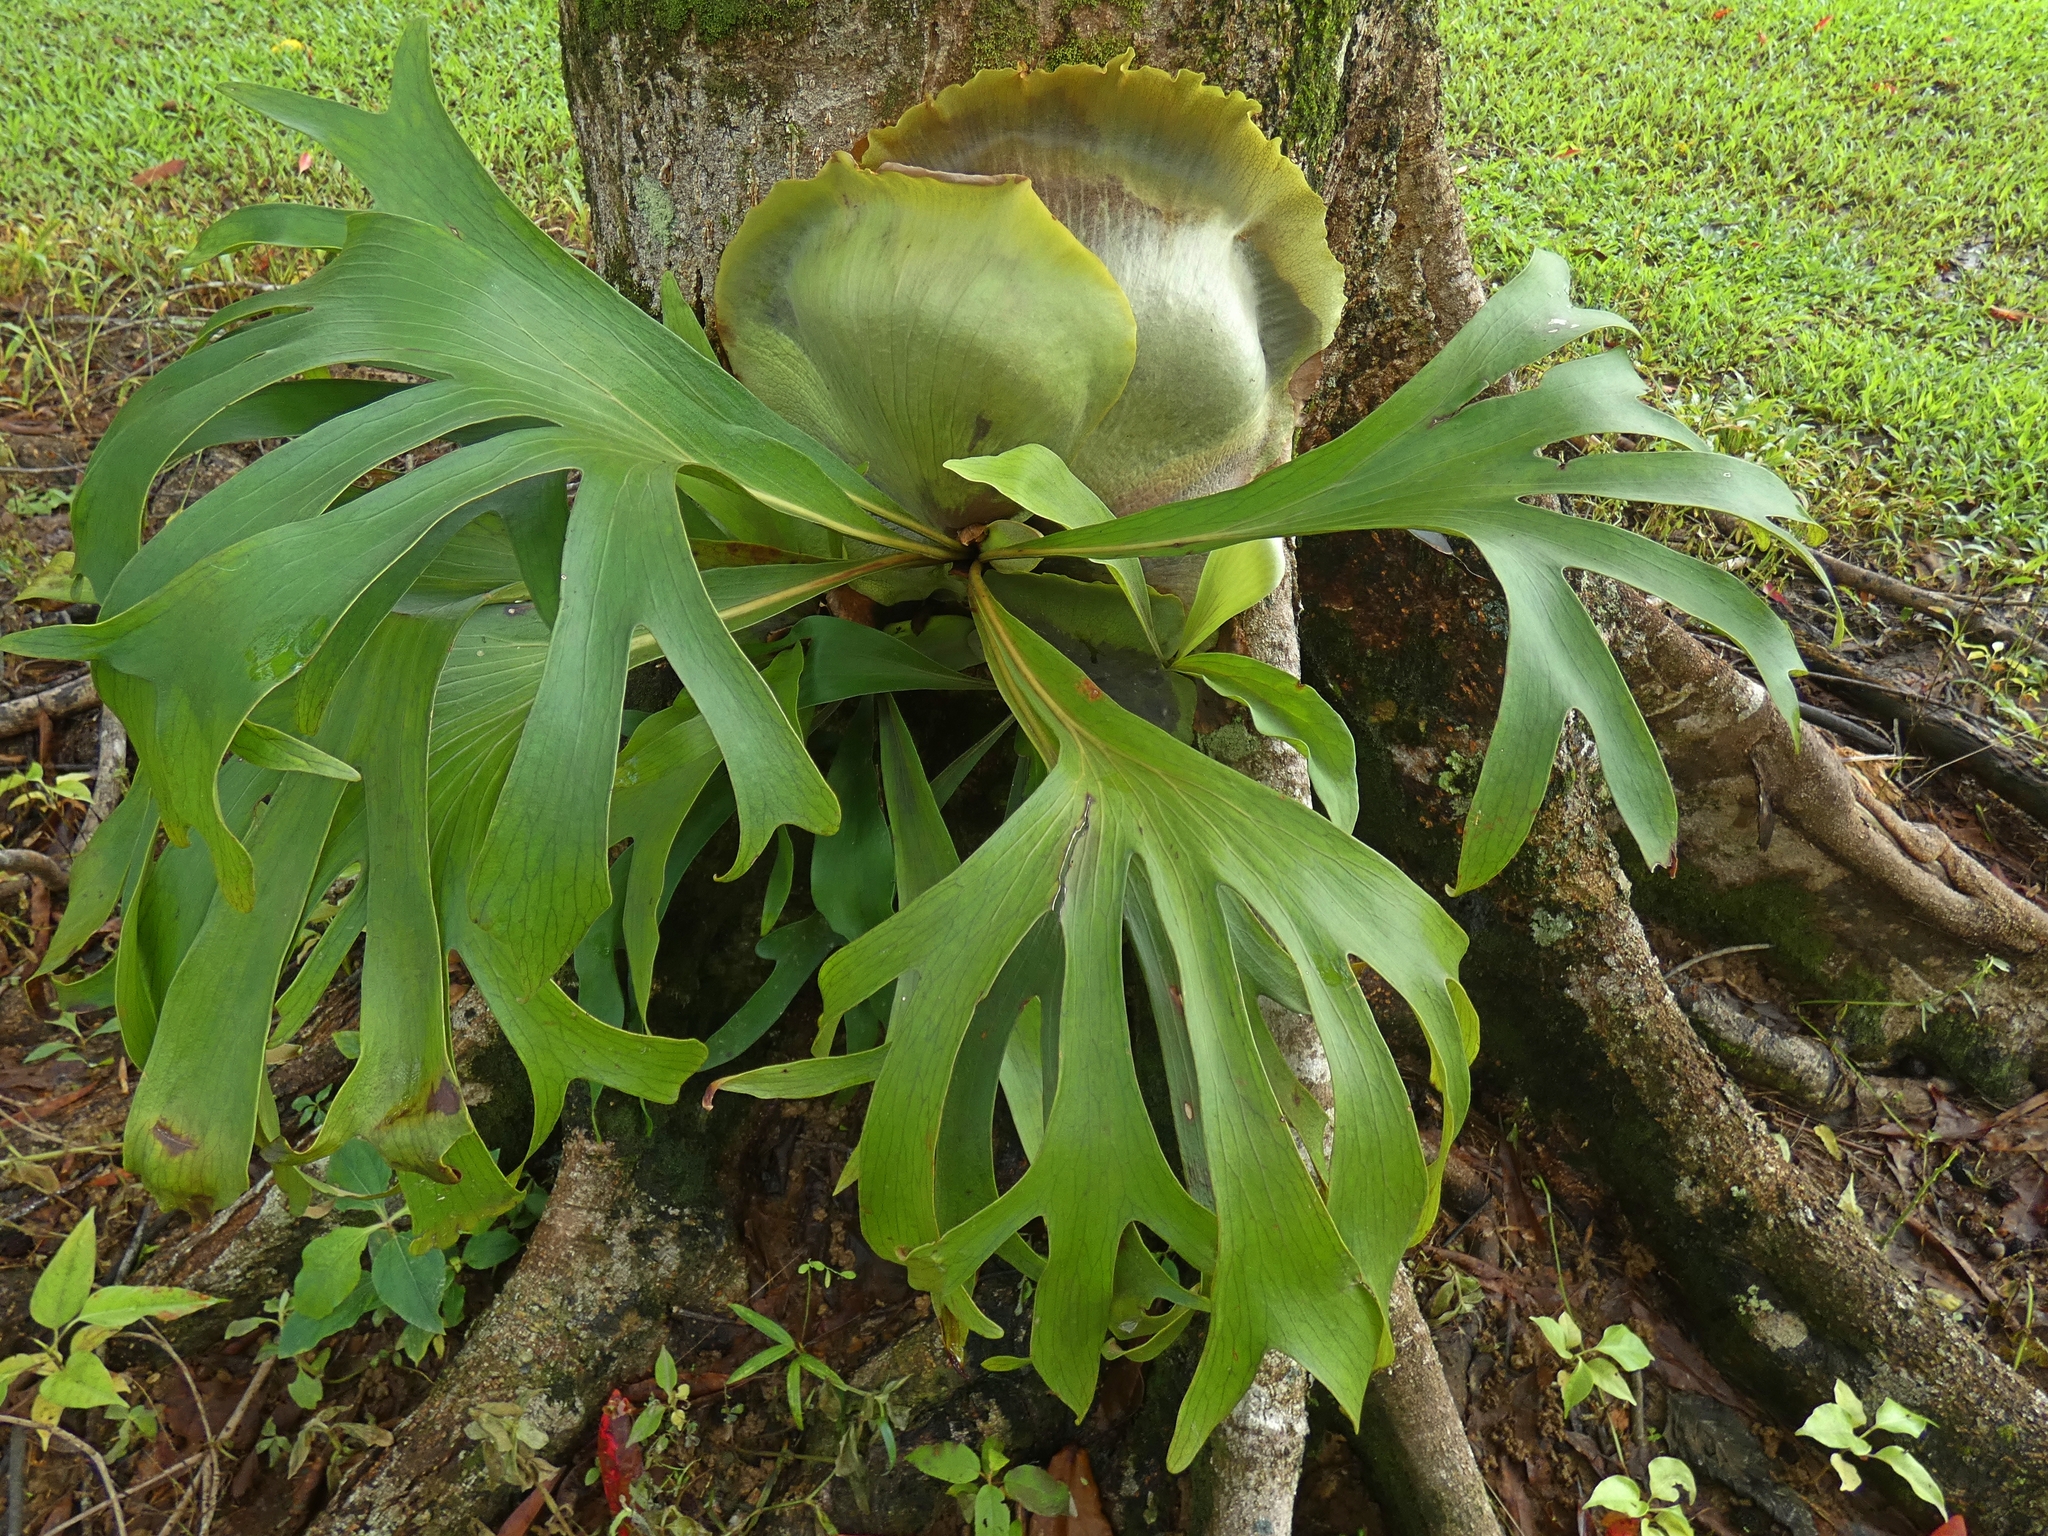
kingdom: Plantae
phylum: Tracheophyta
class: Polypodiopsida
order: Polypodiales
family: Polypodiaceae
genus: Platycerium
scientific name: Platycerium hillii
